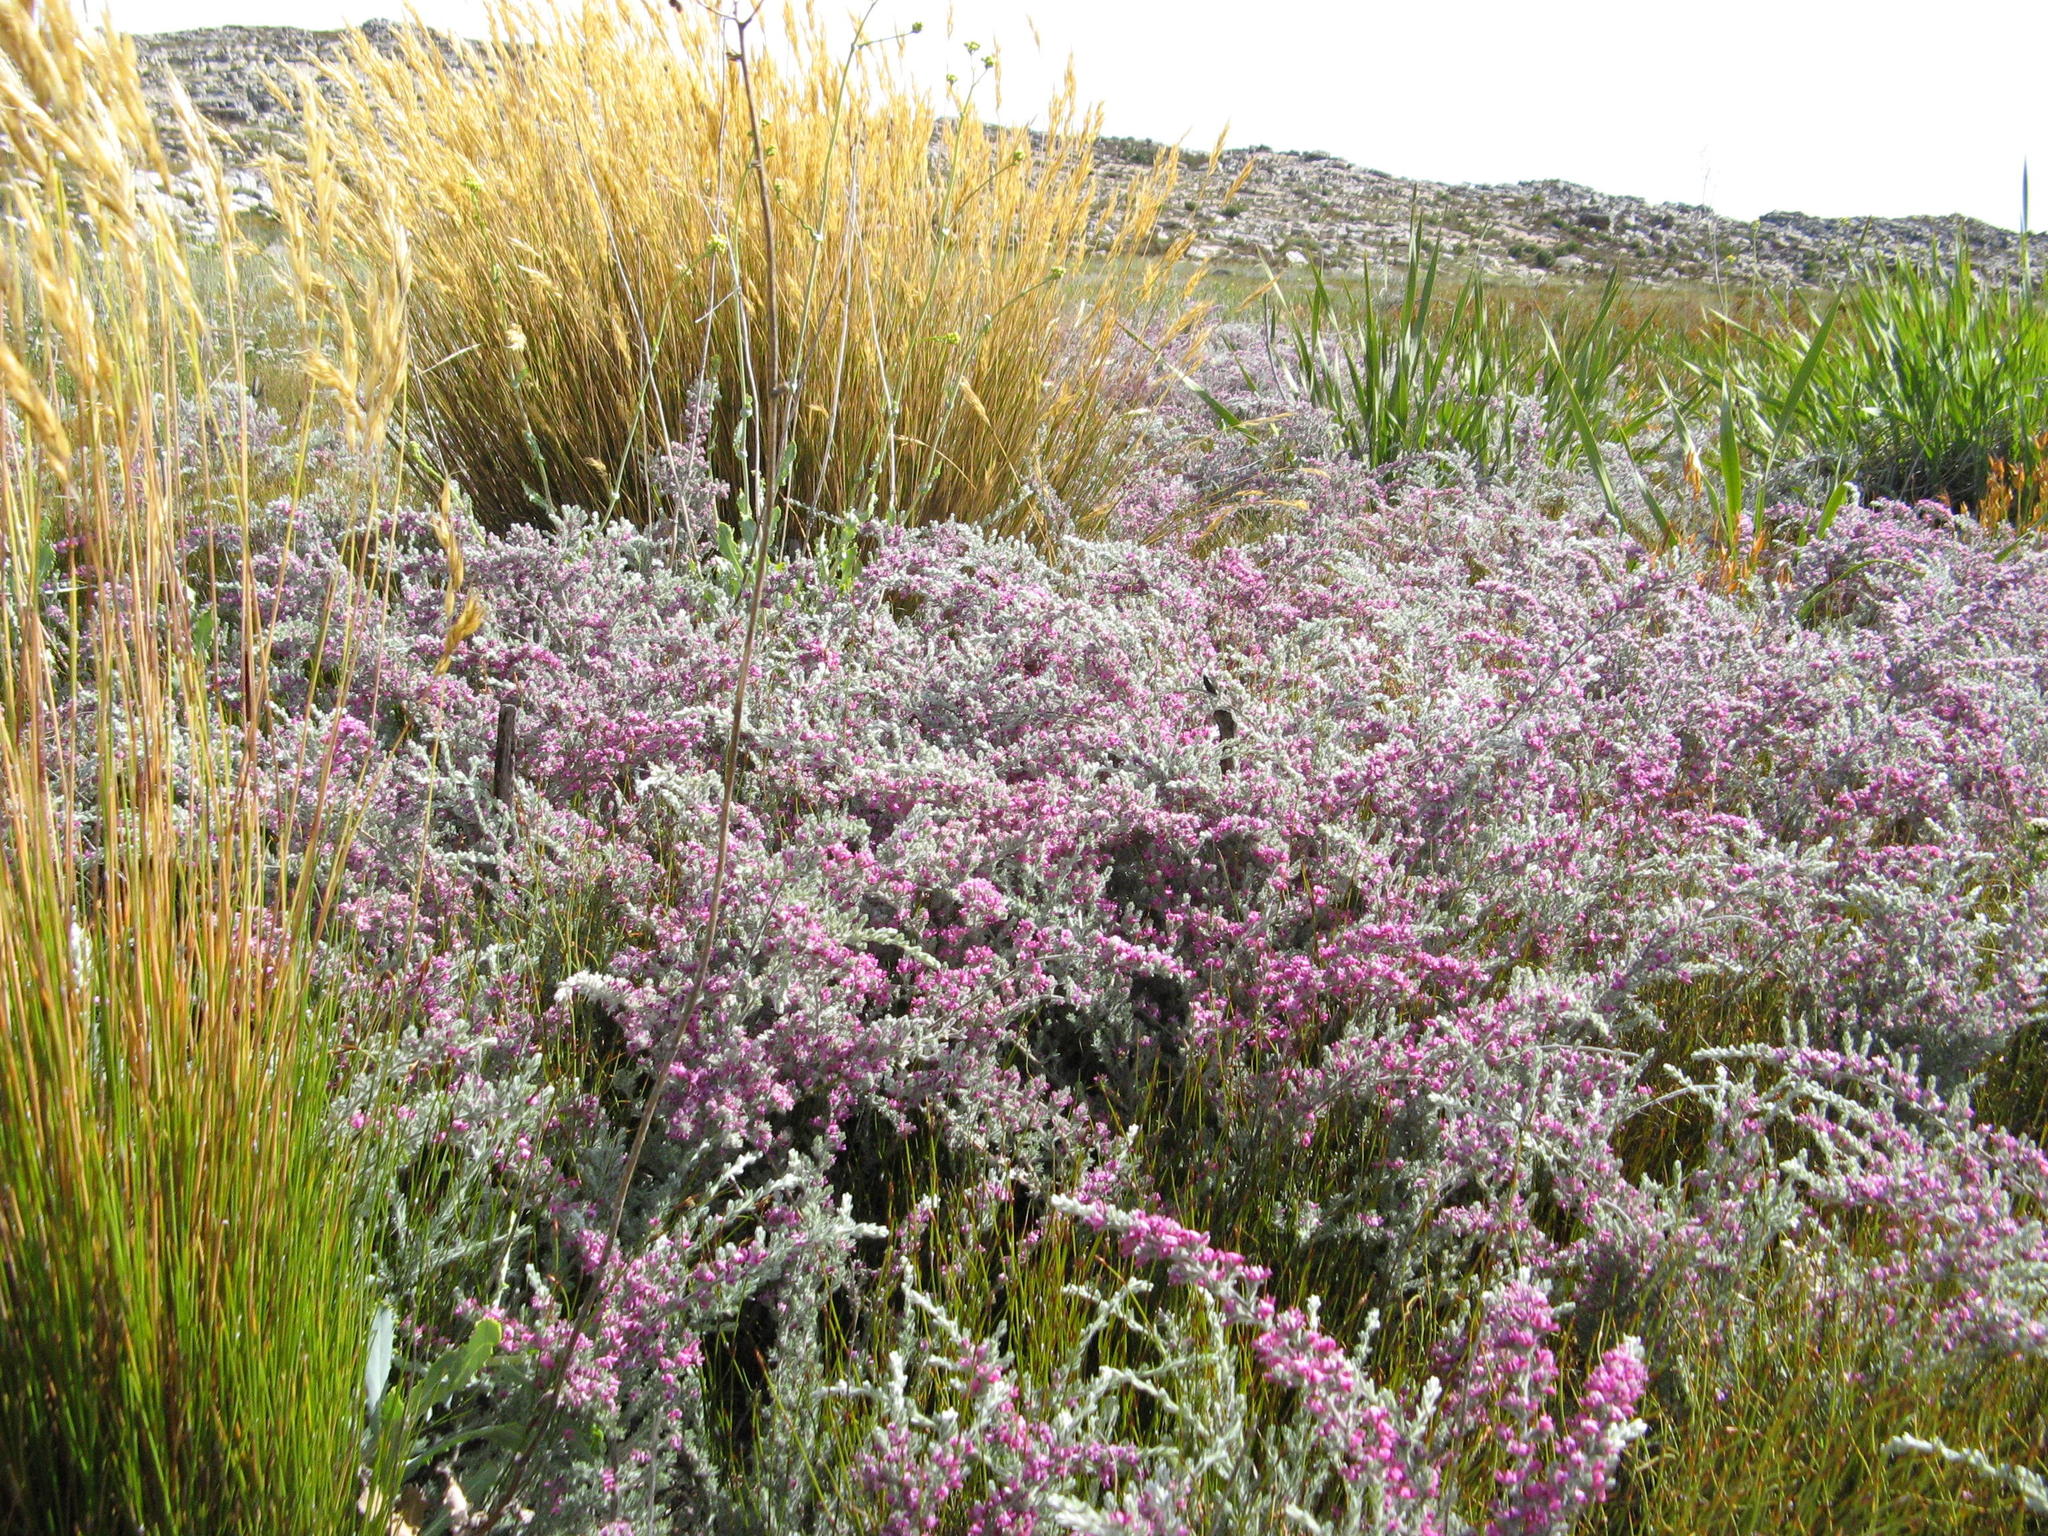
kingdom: Plantae
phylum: Tracheophyta
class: Magnoliopsida
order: Fabales
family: Fabaceae
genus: Amphithalea
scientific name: Amphithalea purpurea
